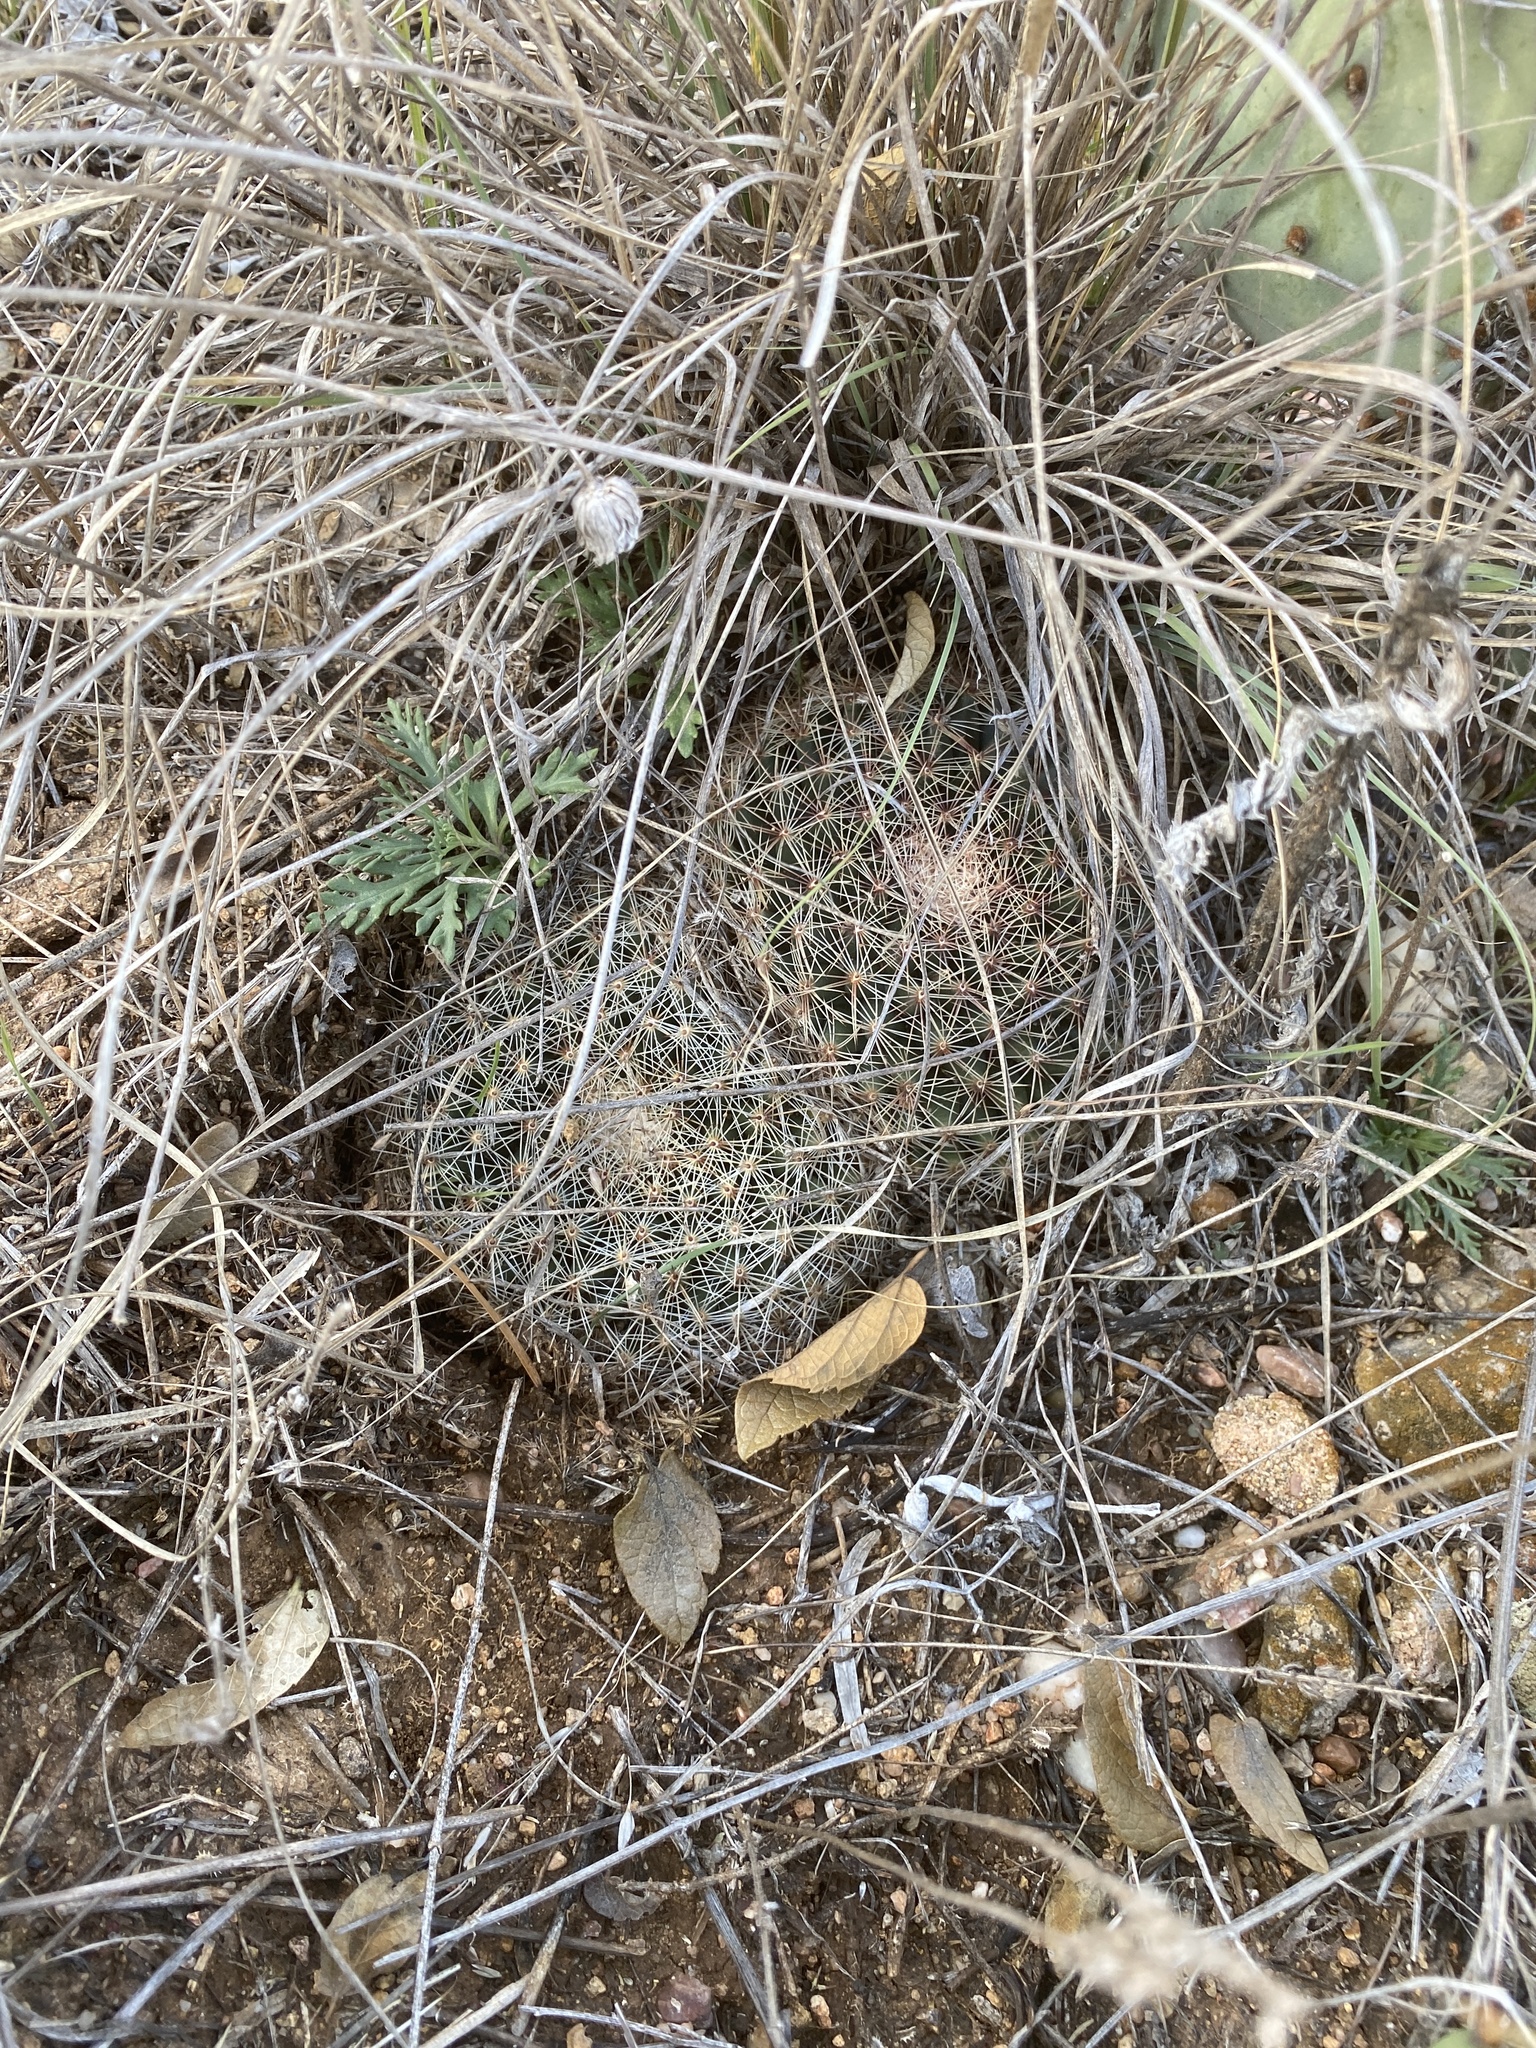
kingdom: Plantae
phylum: Tracheophyta
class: Magnoliopsida
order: Caryophyllales
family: Cactaceae
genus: Mammillaria
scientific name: Mammillaria heyderi
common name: Little nipple cactus
